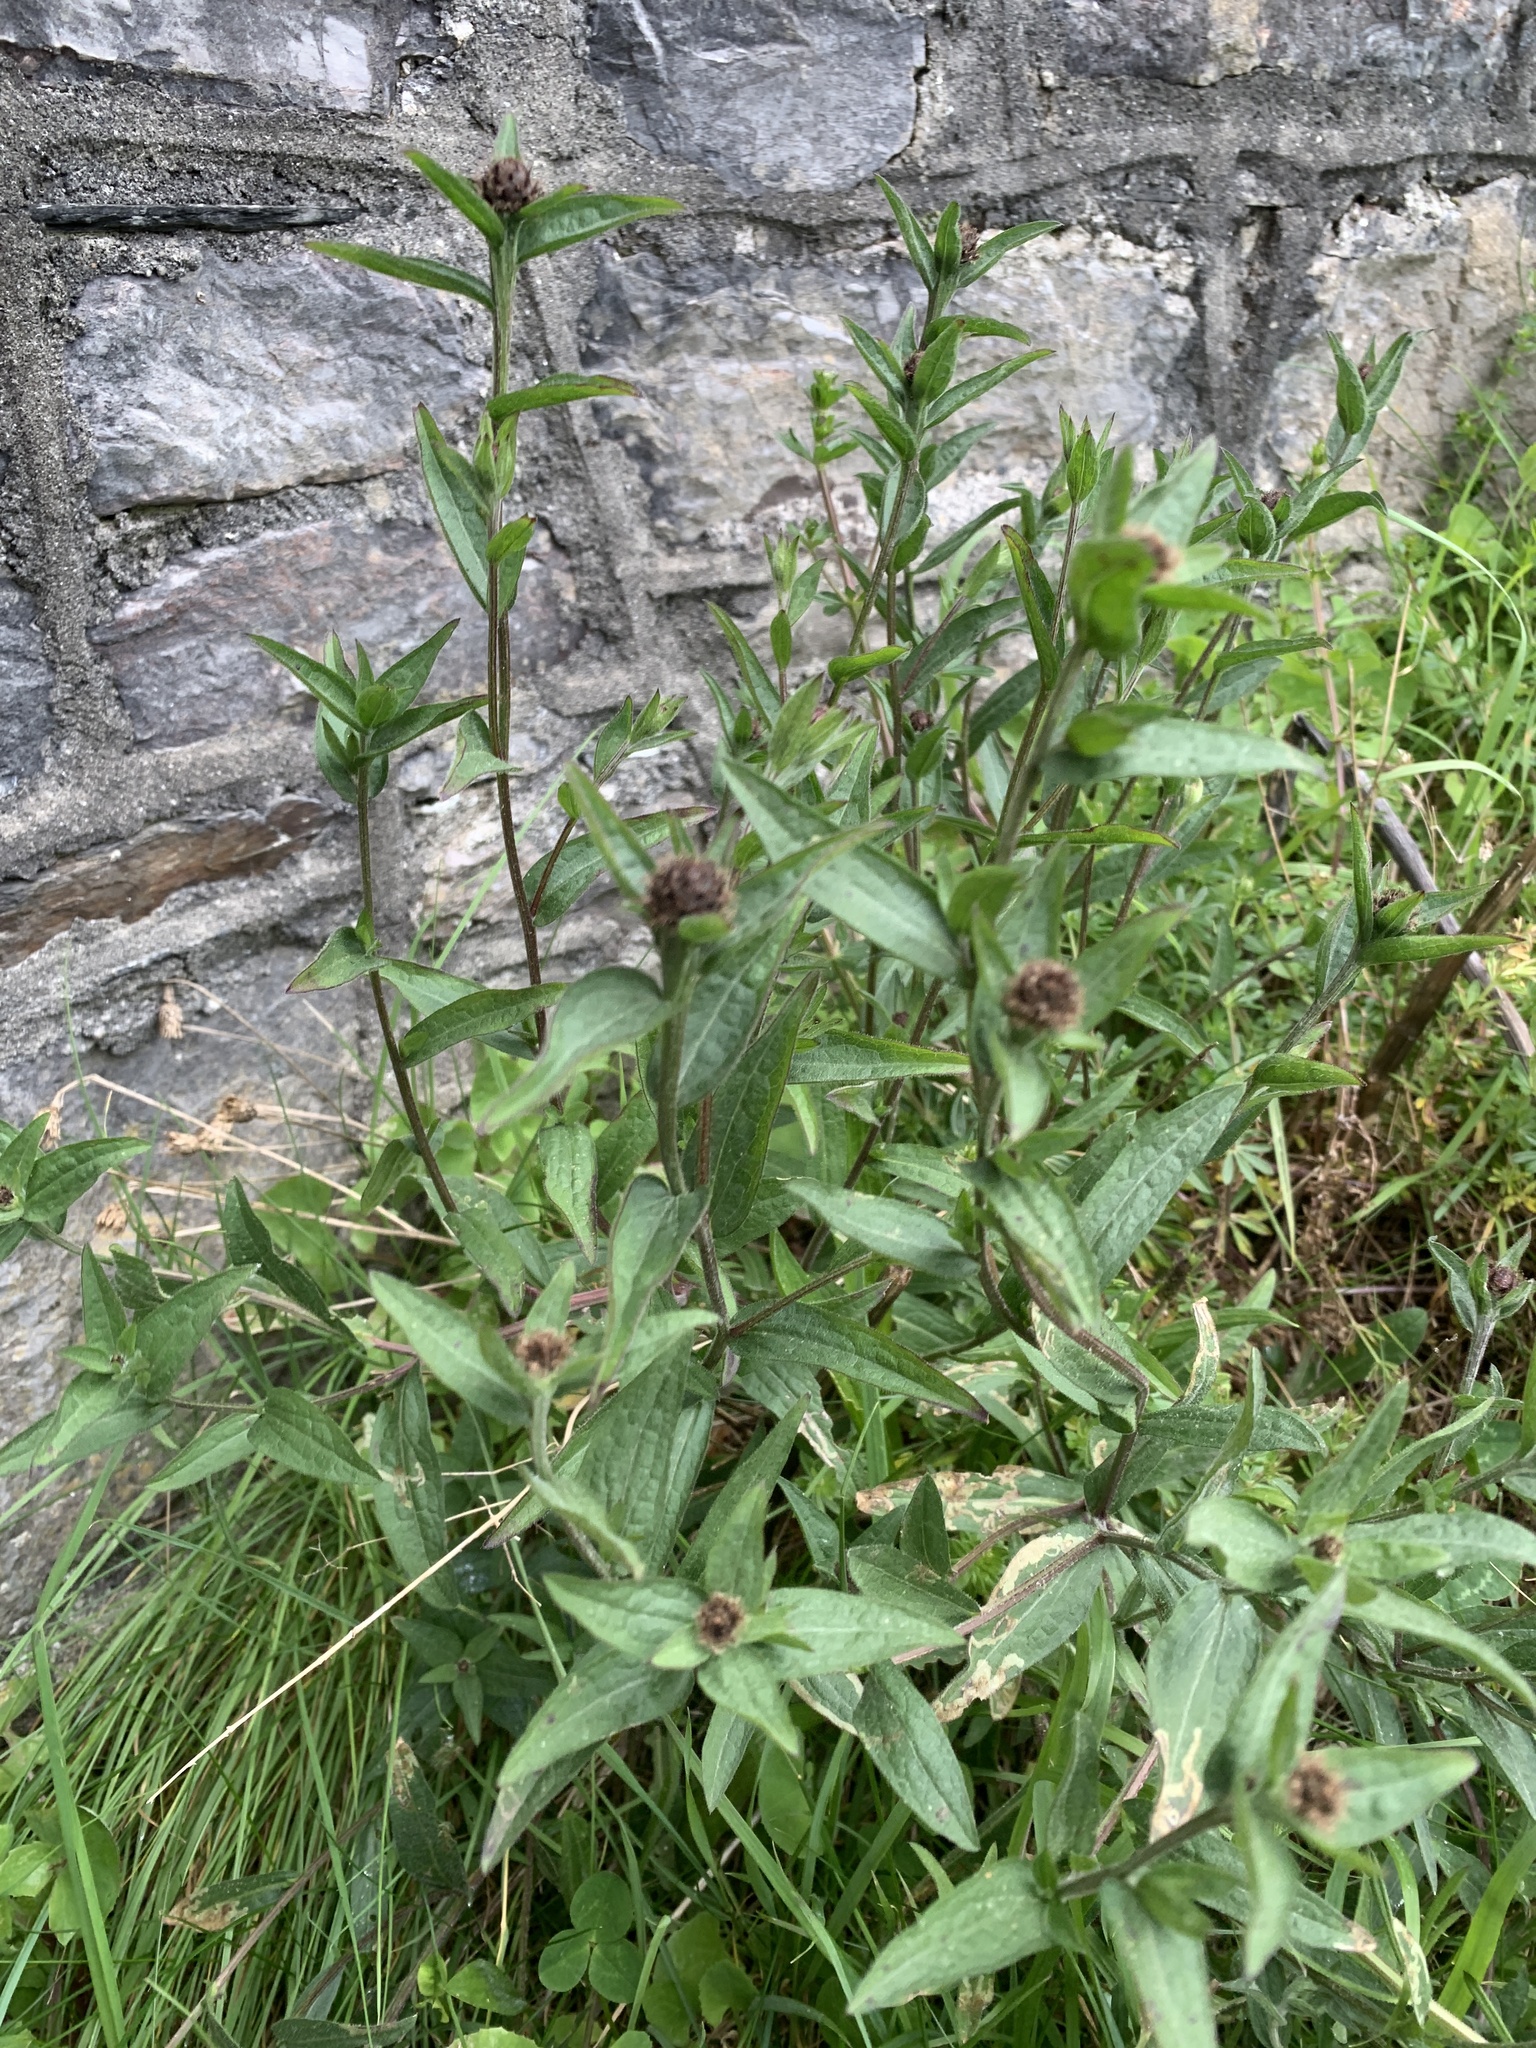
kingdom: Plantae
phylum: Tracheophyta
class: Magnoliopsida
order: Asterales
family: Asteraceae
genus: Centaurea
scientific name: Centaurea nigra
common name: Lesser knapweed
